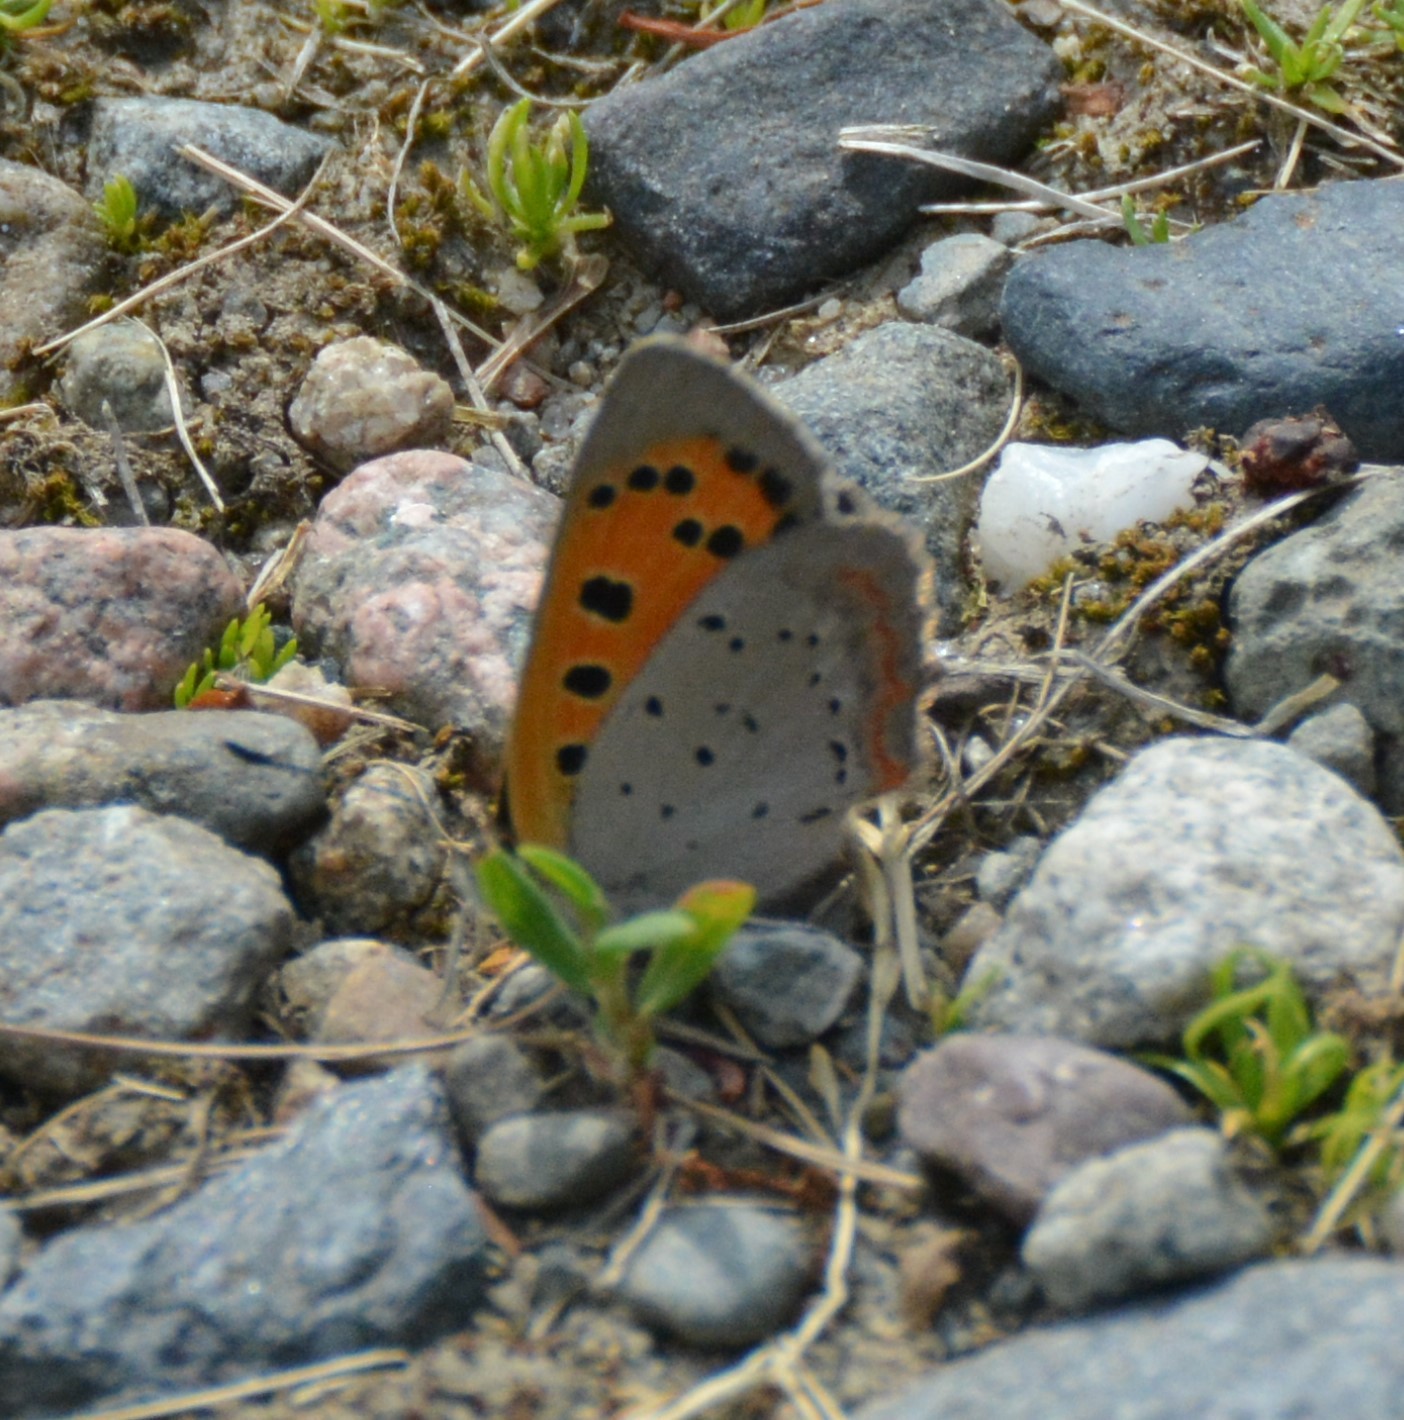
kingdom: Animalia
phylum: Arthropoda
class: Insecta
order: Lepidoptera
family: Lycaenidae
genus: Lycaena
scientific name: Lycaena hypophlaeas
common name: American copper
